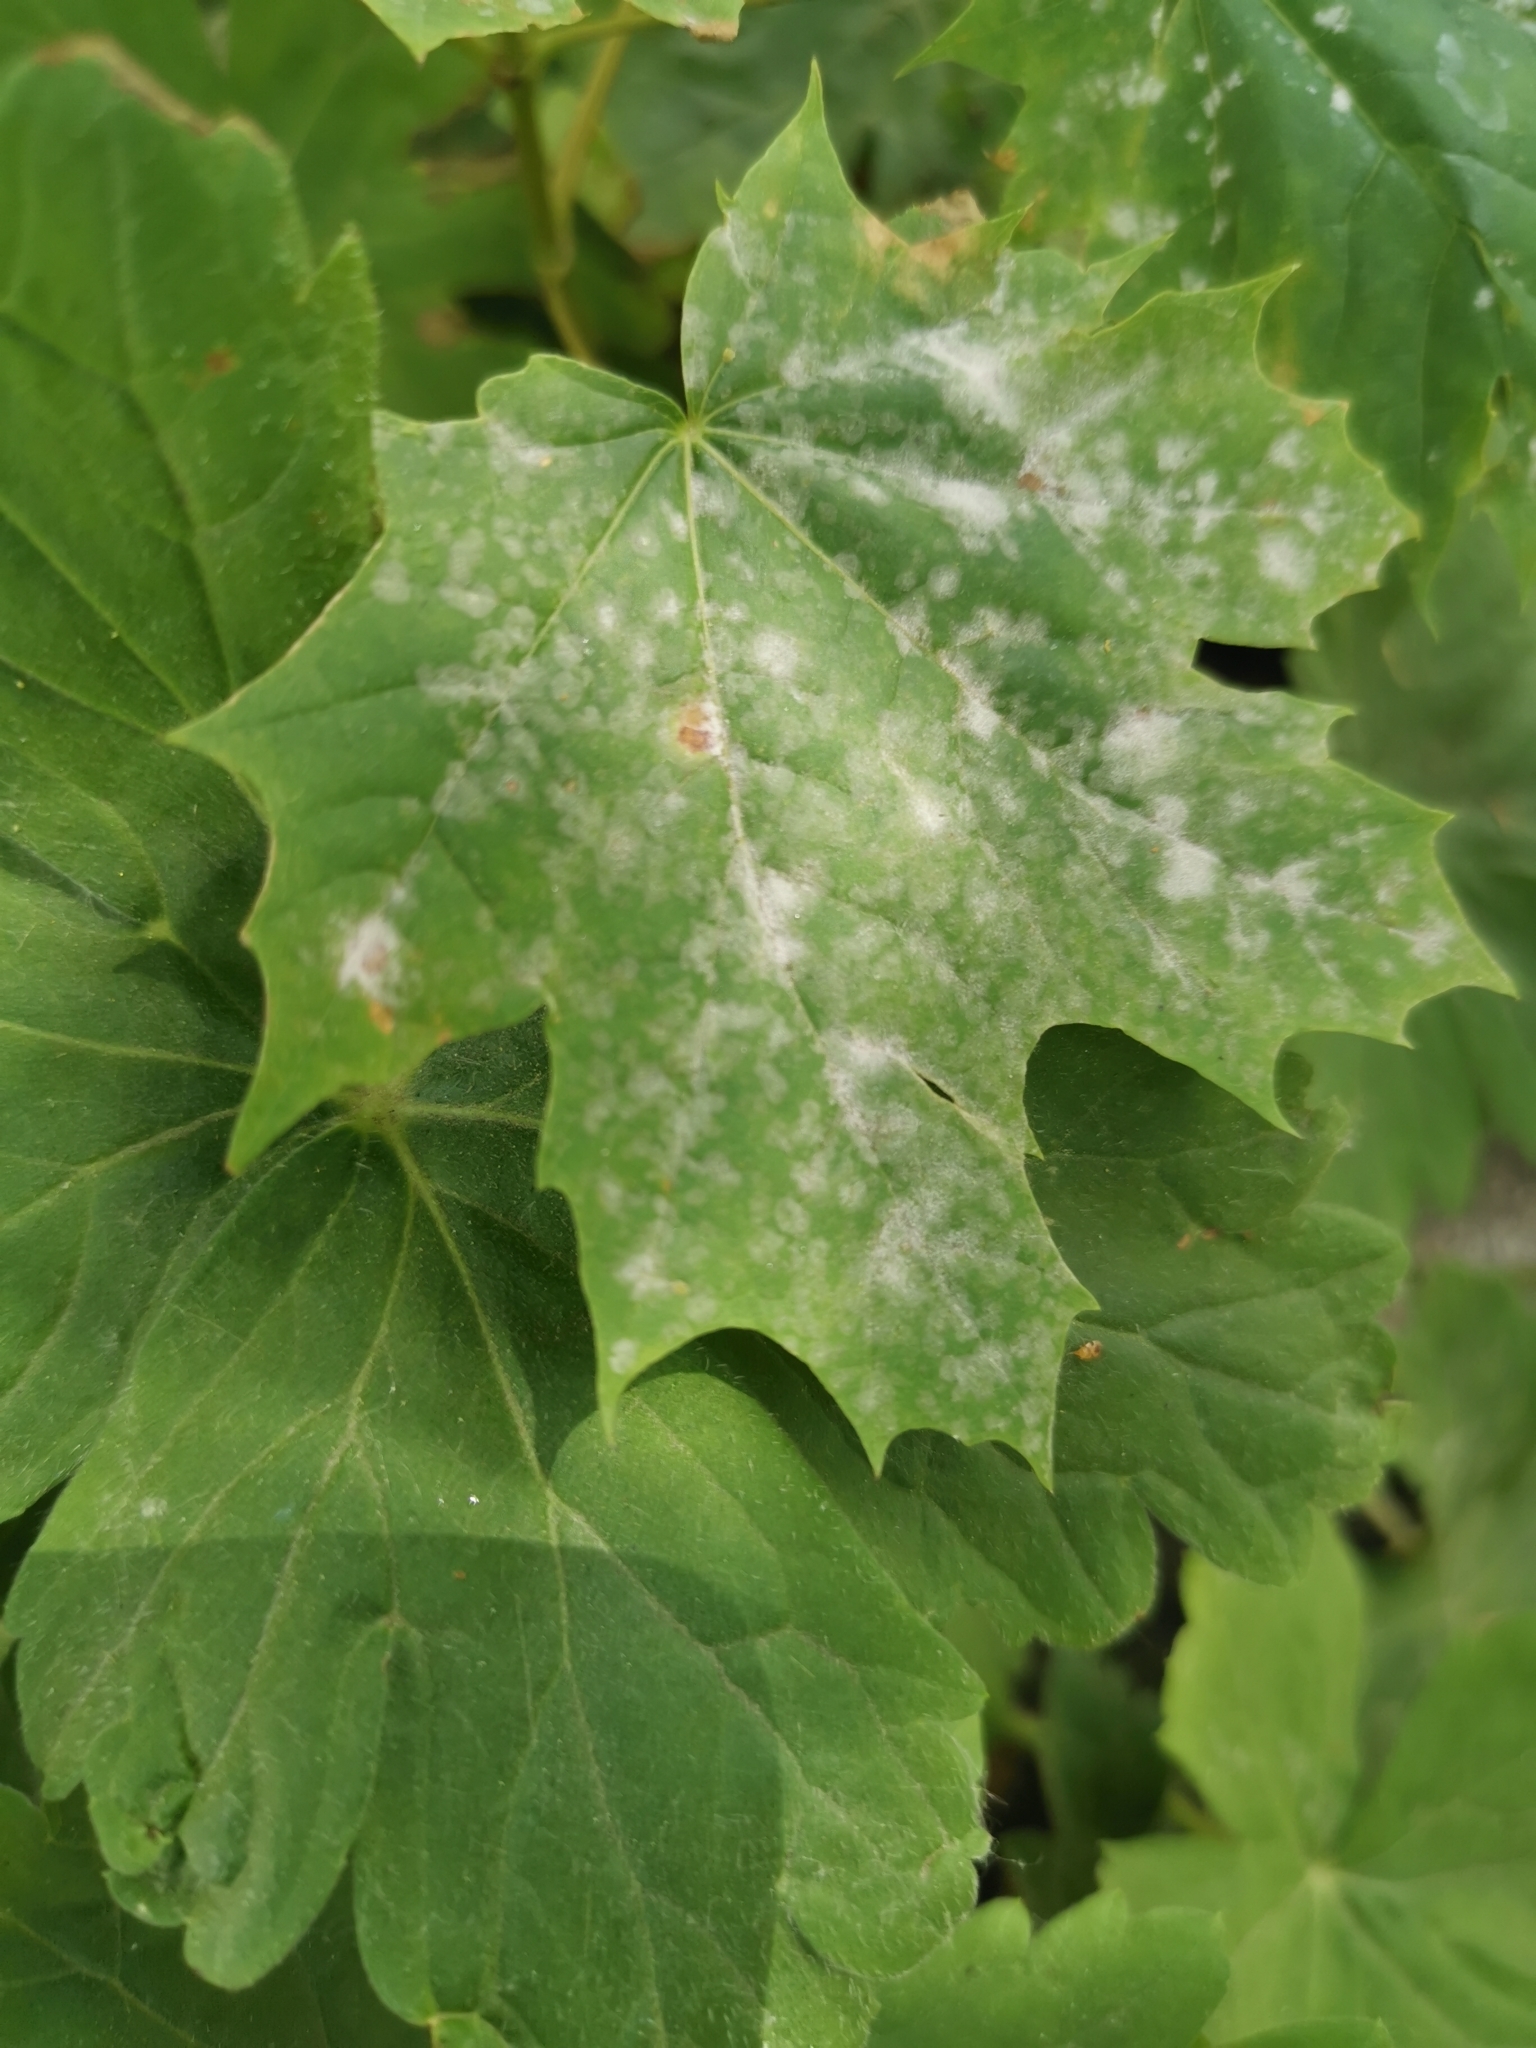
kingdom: Fungi
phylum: Ascomycota
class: Leotiomycetes
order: Helotiales
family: Erysiphaceae
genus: Sawadaea
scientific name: Sawadaea tulasnei
